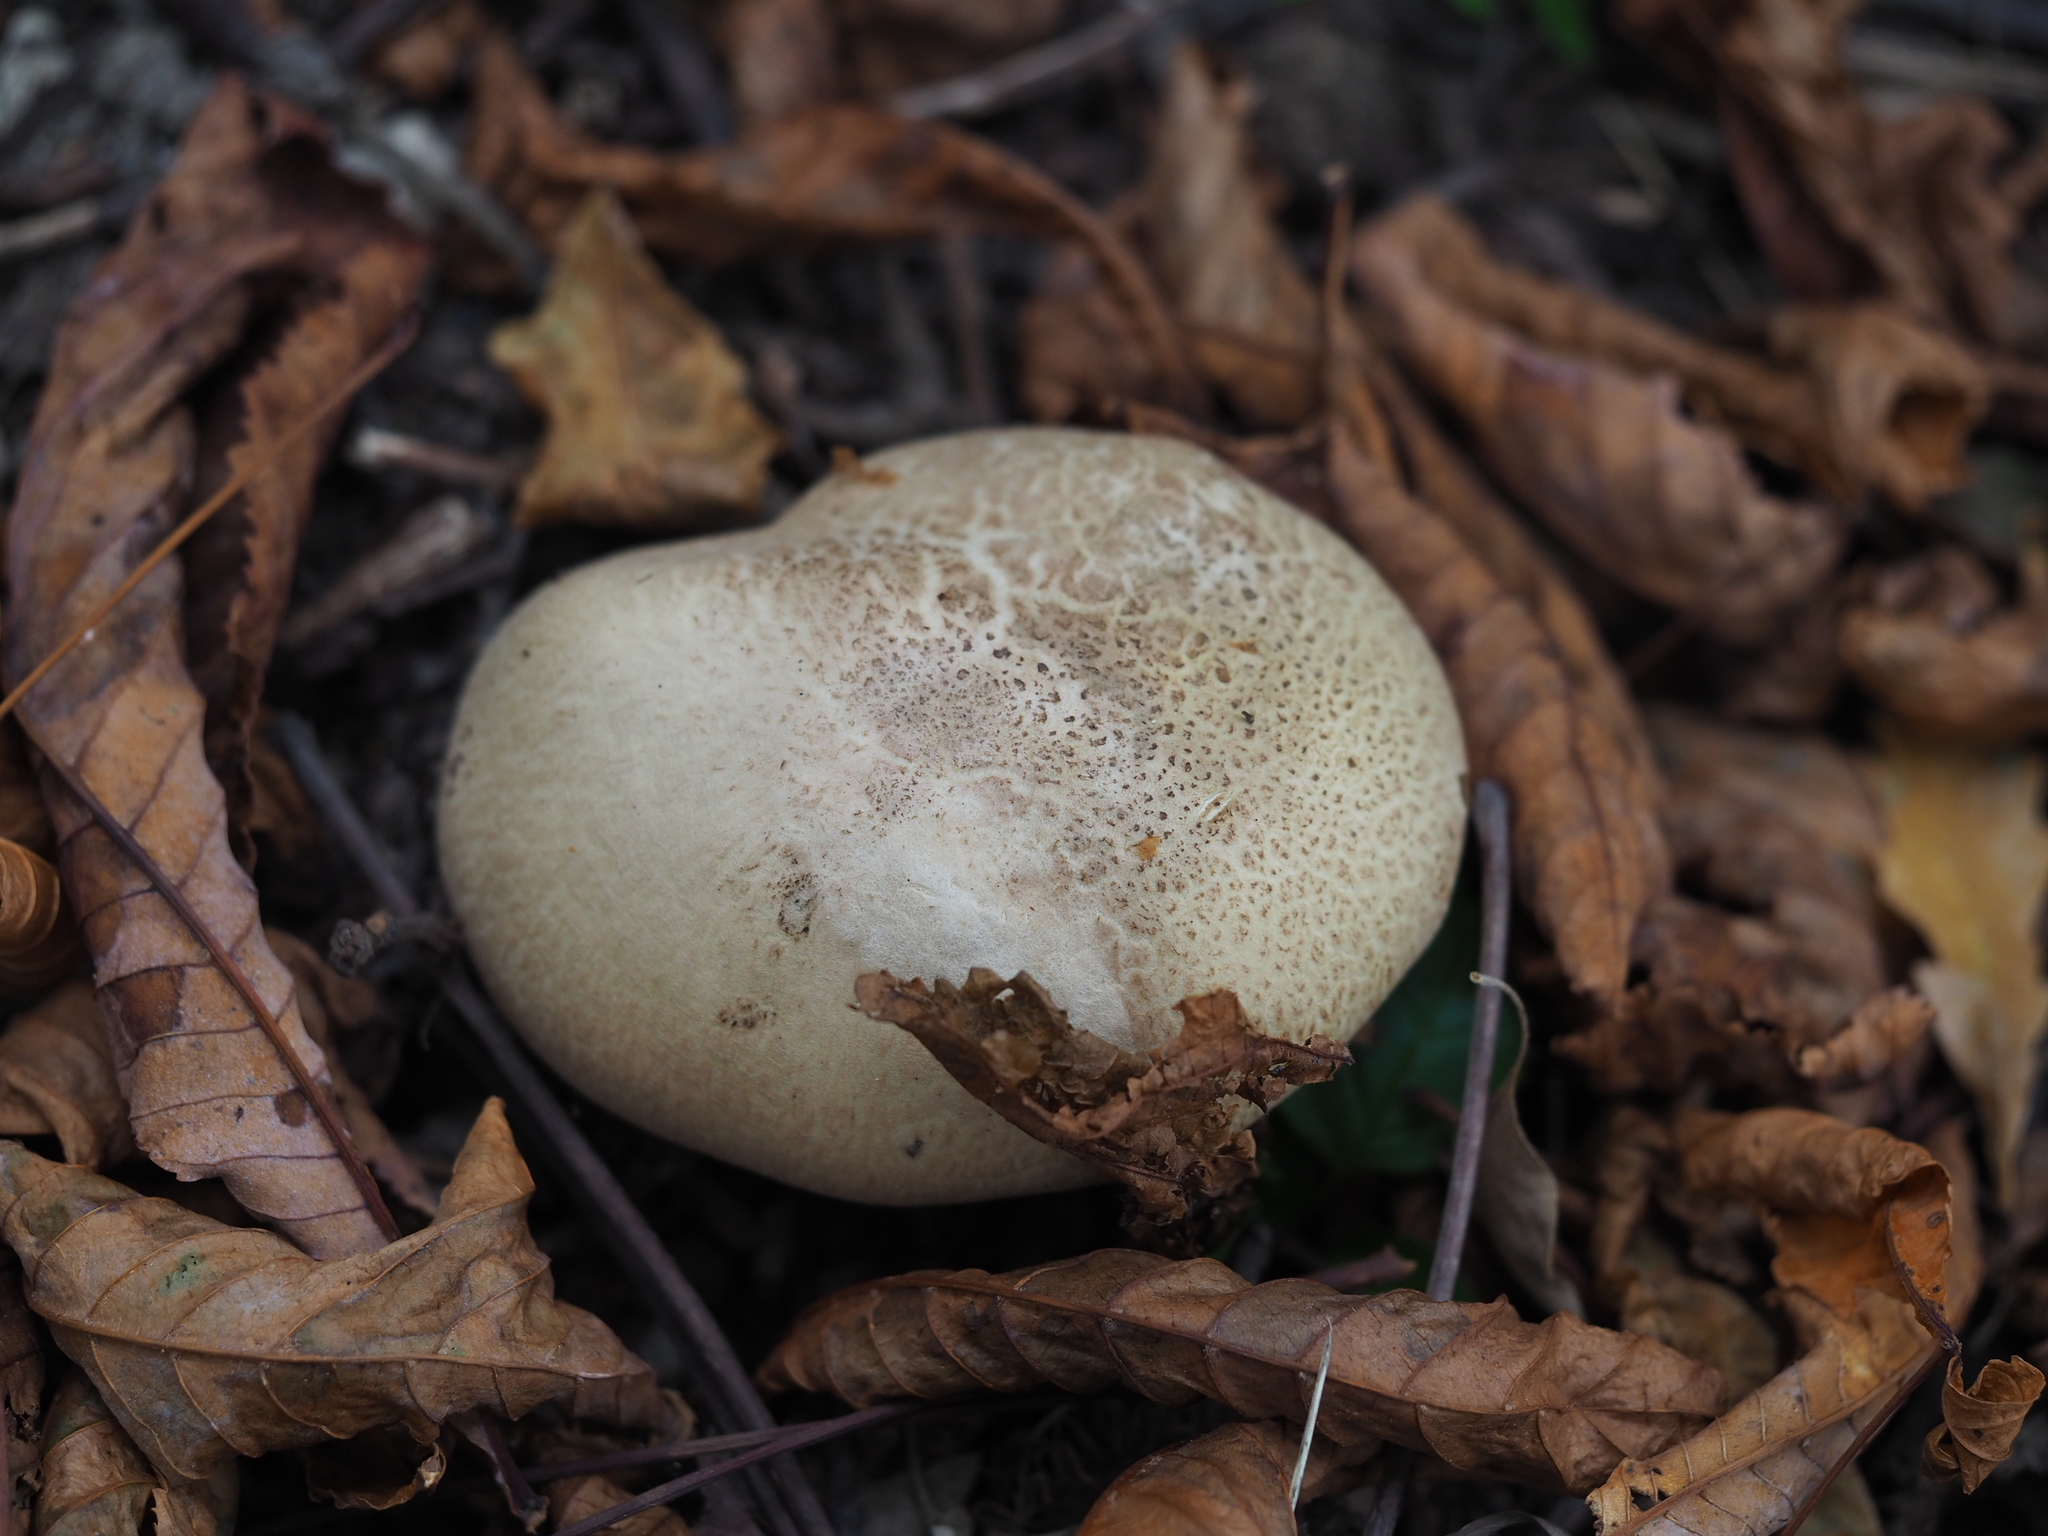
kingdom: Fungi
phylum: Basidiomycota
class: Agaricomycetes
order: Boletales
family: Boletaceae
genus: Caloboletus
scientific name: Caloboletus radicans
